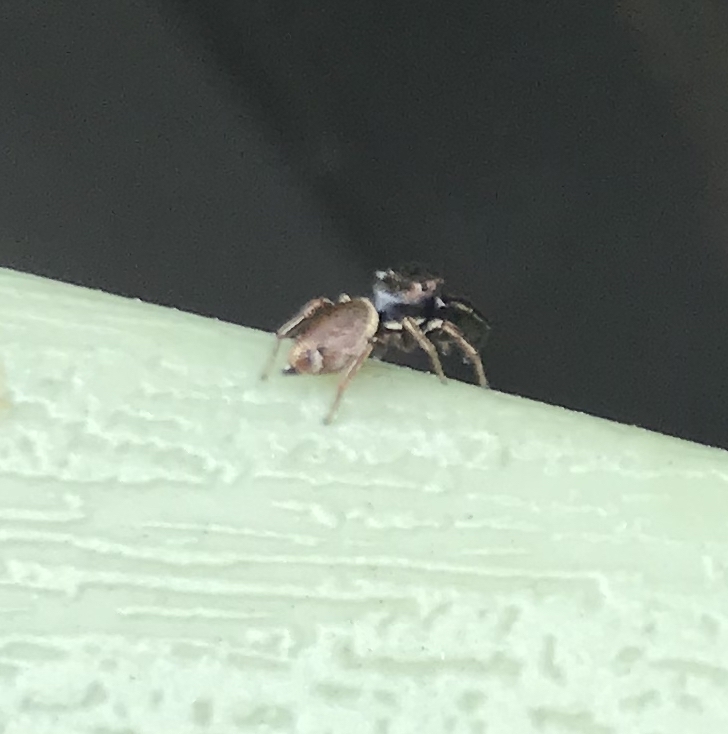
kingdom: Animalia
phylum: Arthropoda
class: Arachnida
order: Araneae
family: Salticidae
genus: Sassacus
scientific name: Sassacus vitis
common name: Jumping spiders
